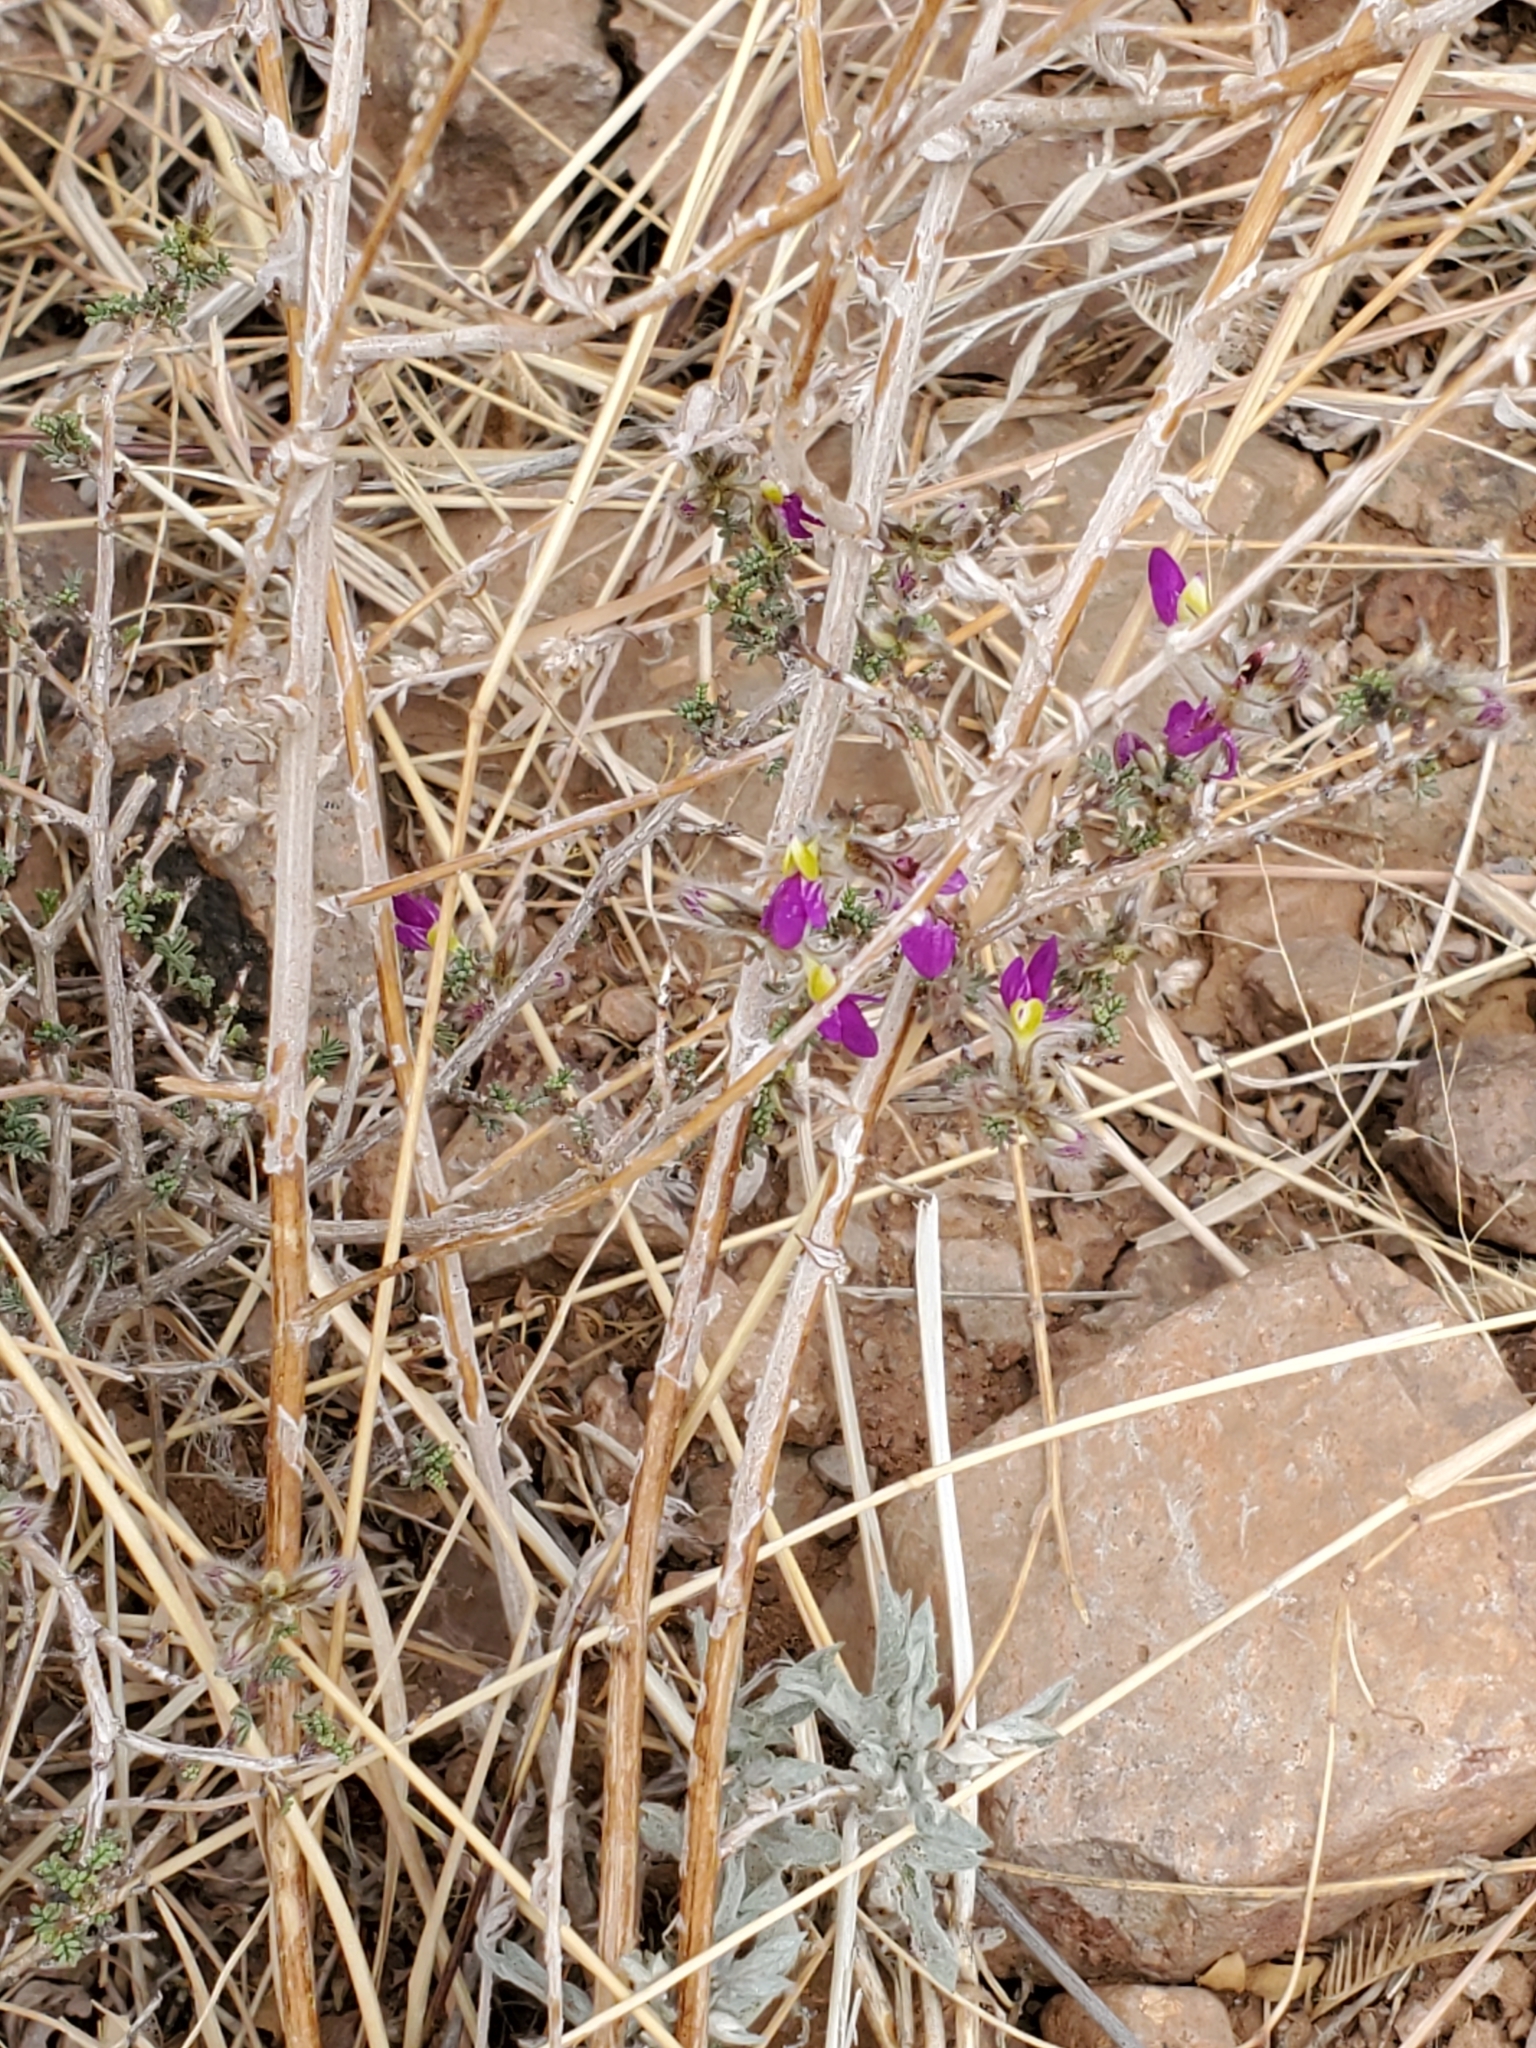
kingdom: Plantae
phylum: Tracheophyta
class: Magnoliopsida
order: Fabales
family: Fabaceae
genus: Dalea
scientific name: Dalea formosa
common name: Feather-plume dalea
